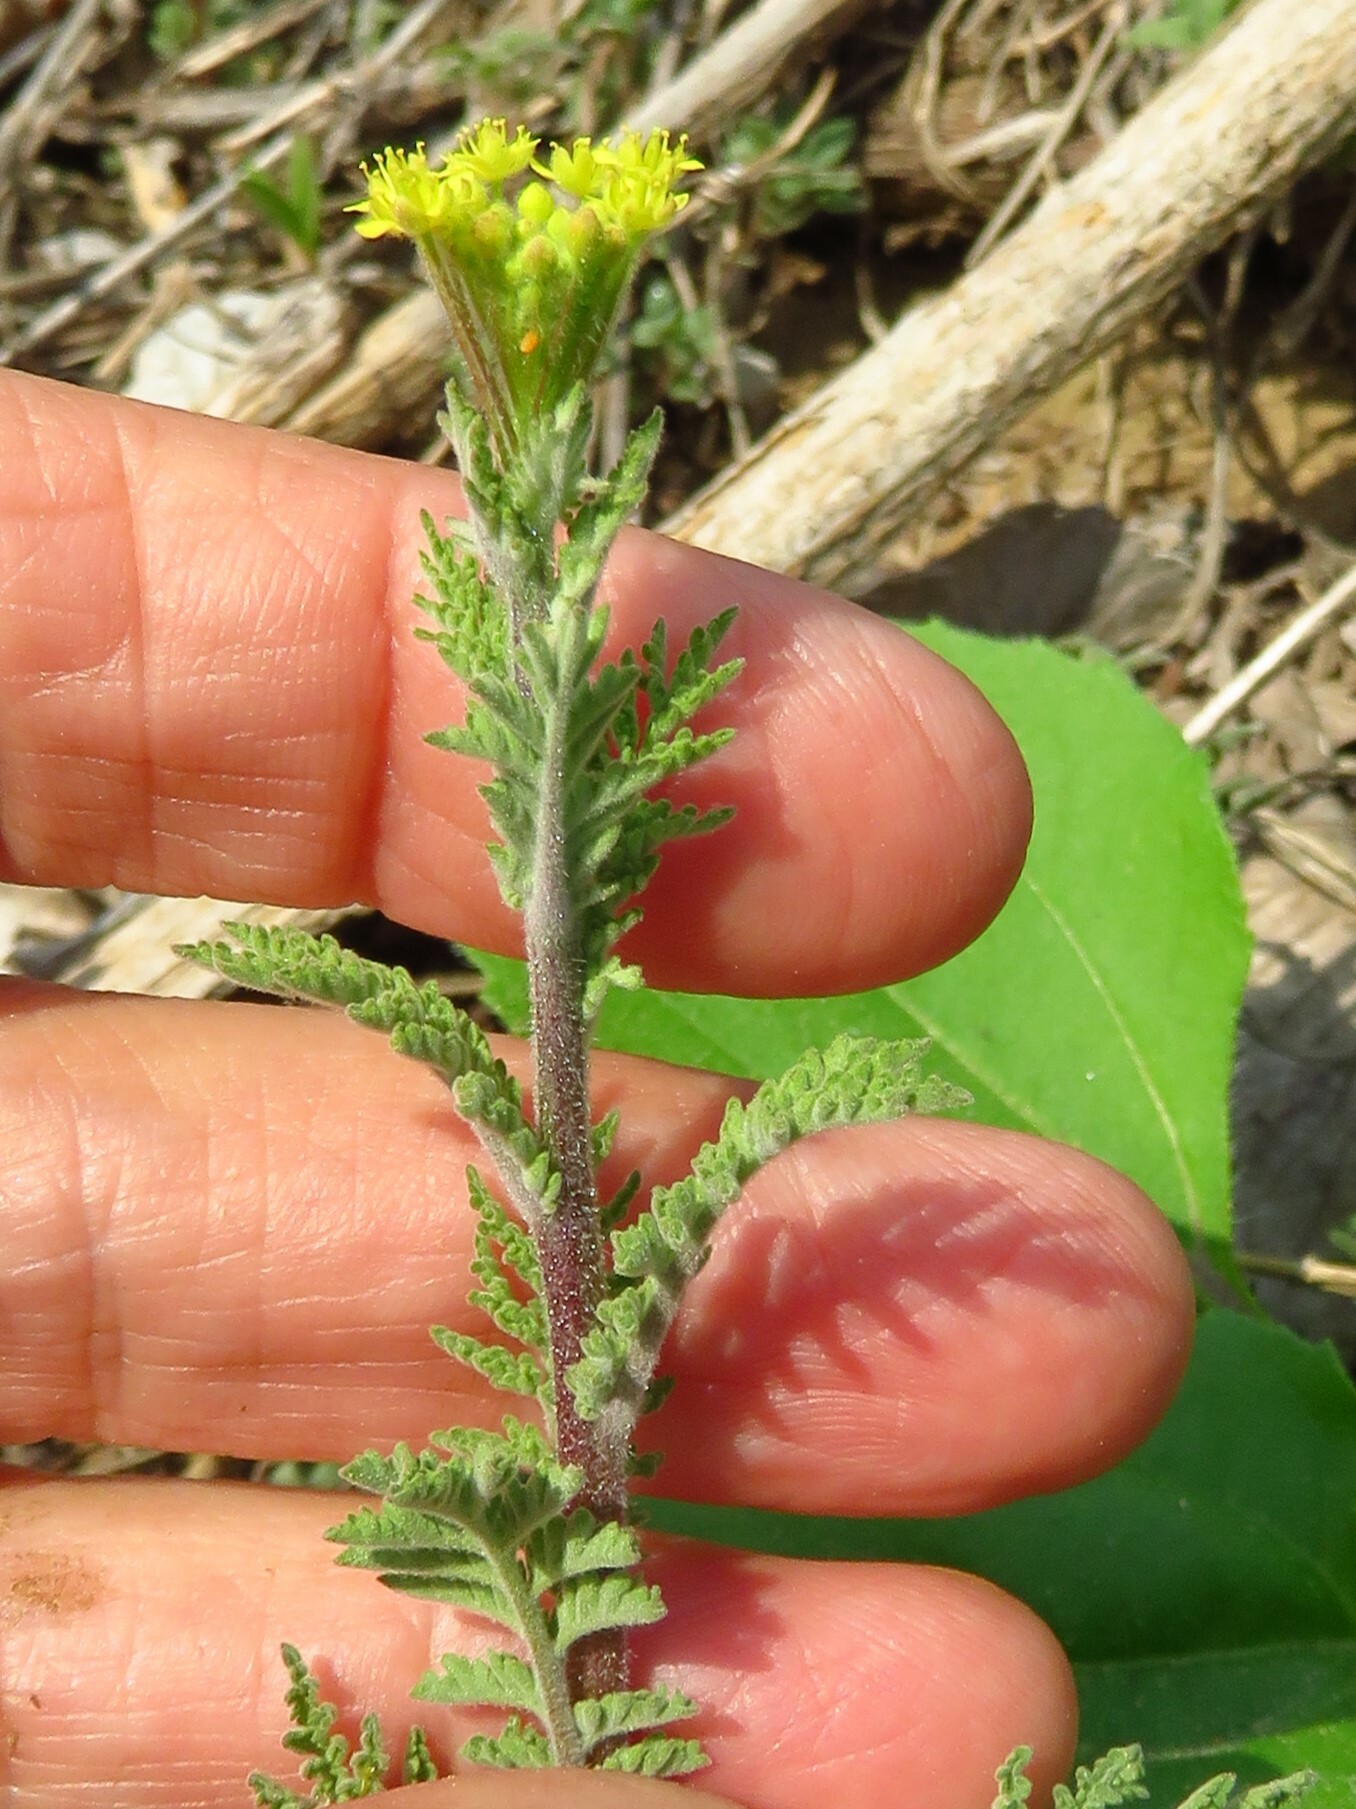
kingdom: Plantae
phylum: Tracheophyta
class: Magnoliopsida
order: Brassicales
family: Brassicaceae
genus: Descurainia
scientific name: Descurainia pinnata
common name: Western tansy mustard
